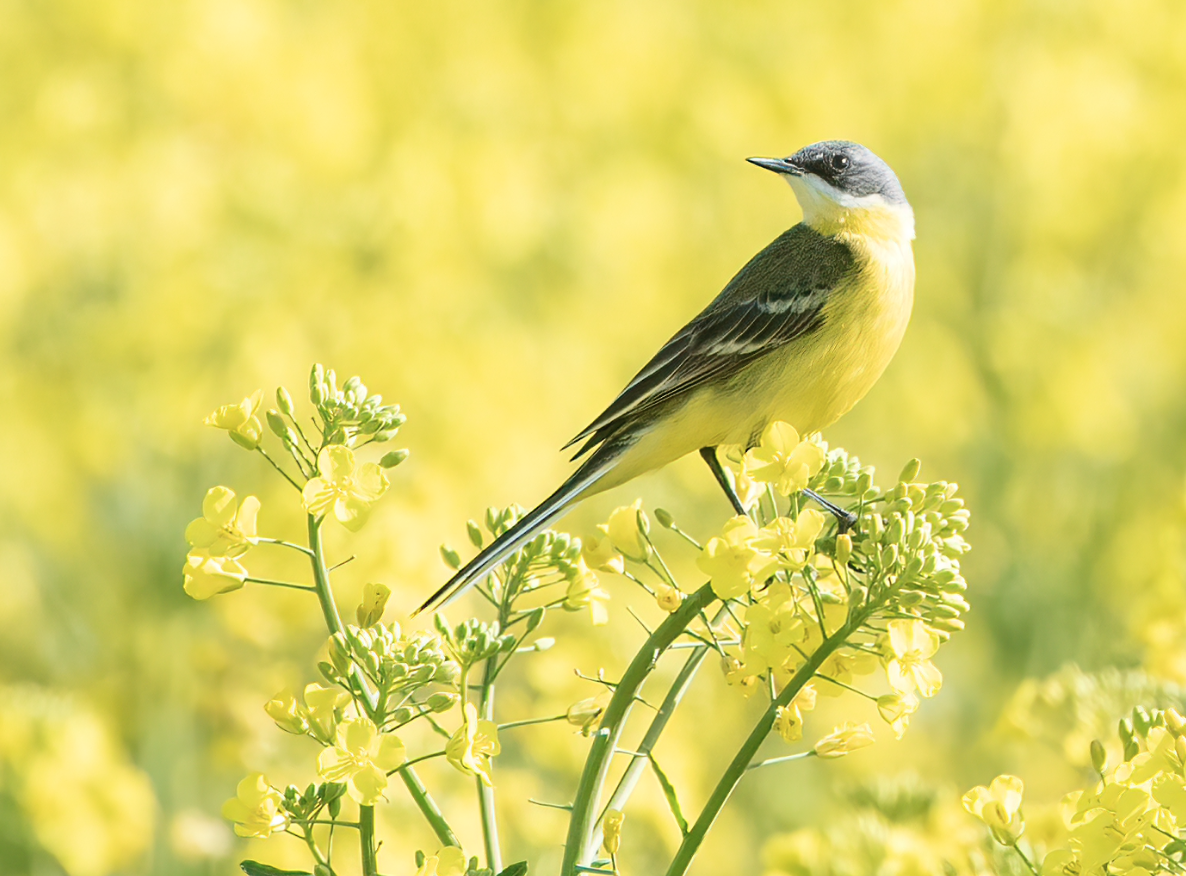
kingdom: Animalia
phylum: Chordata
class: Aves
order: Passeriformes
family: Motacillidae
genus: Motacilla
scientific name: Motacilla flava
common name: Western yellow wagtail
